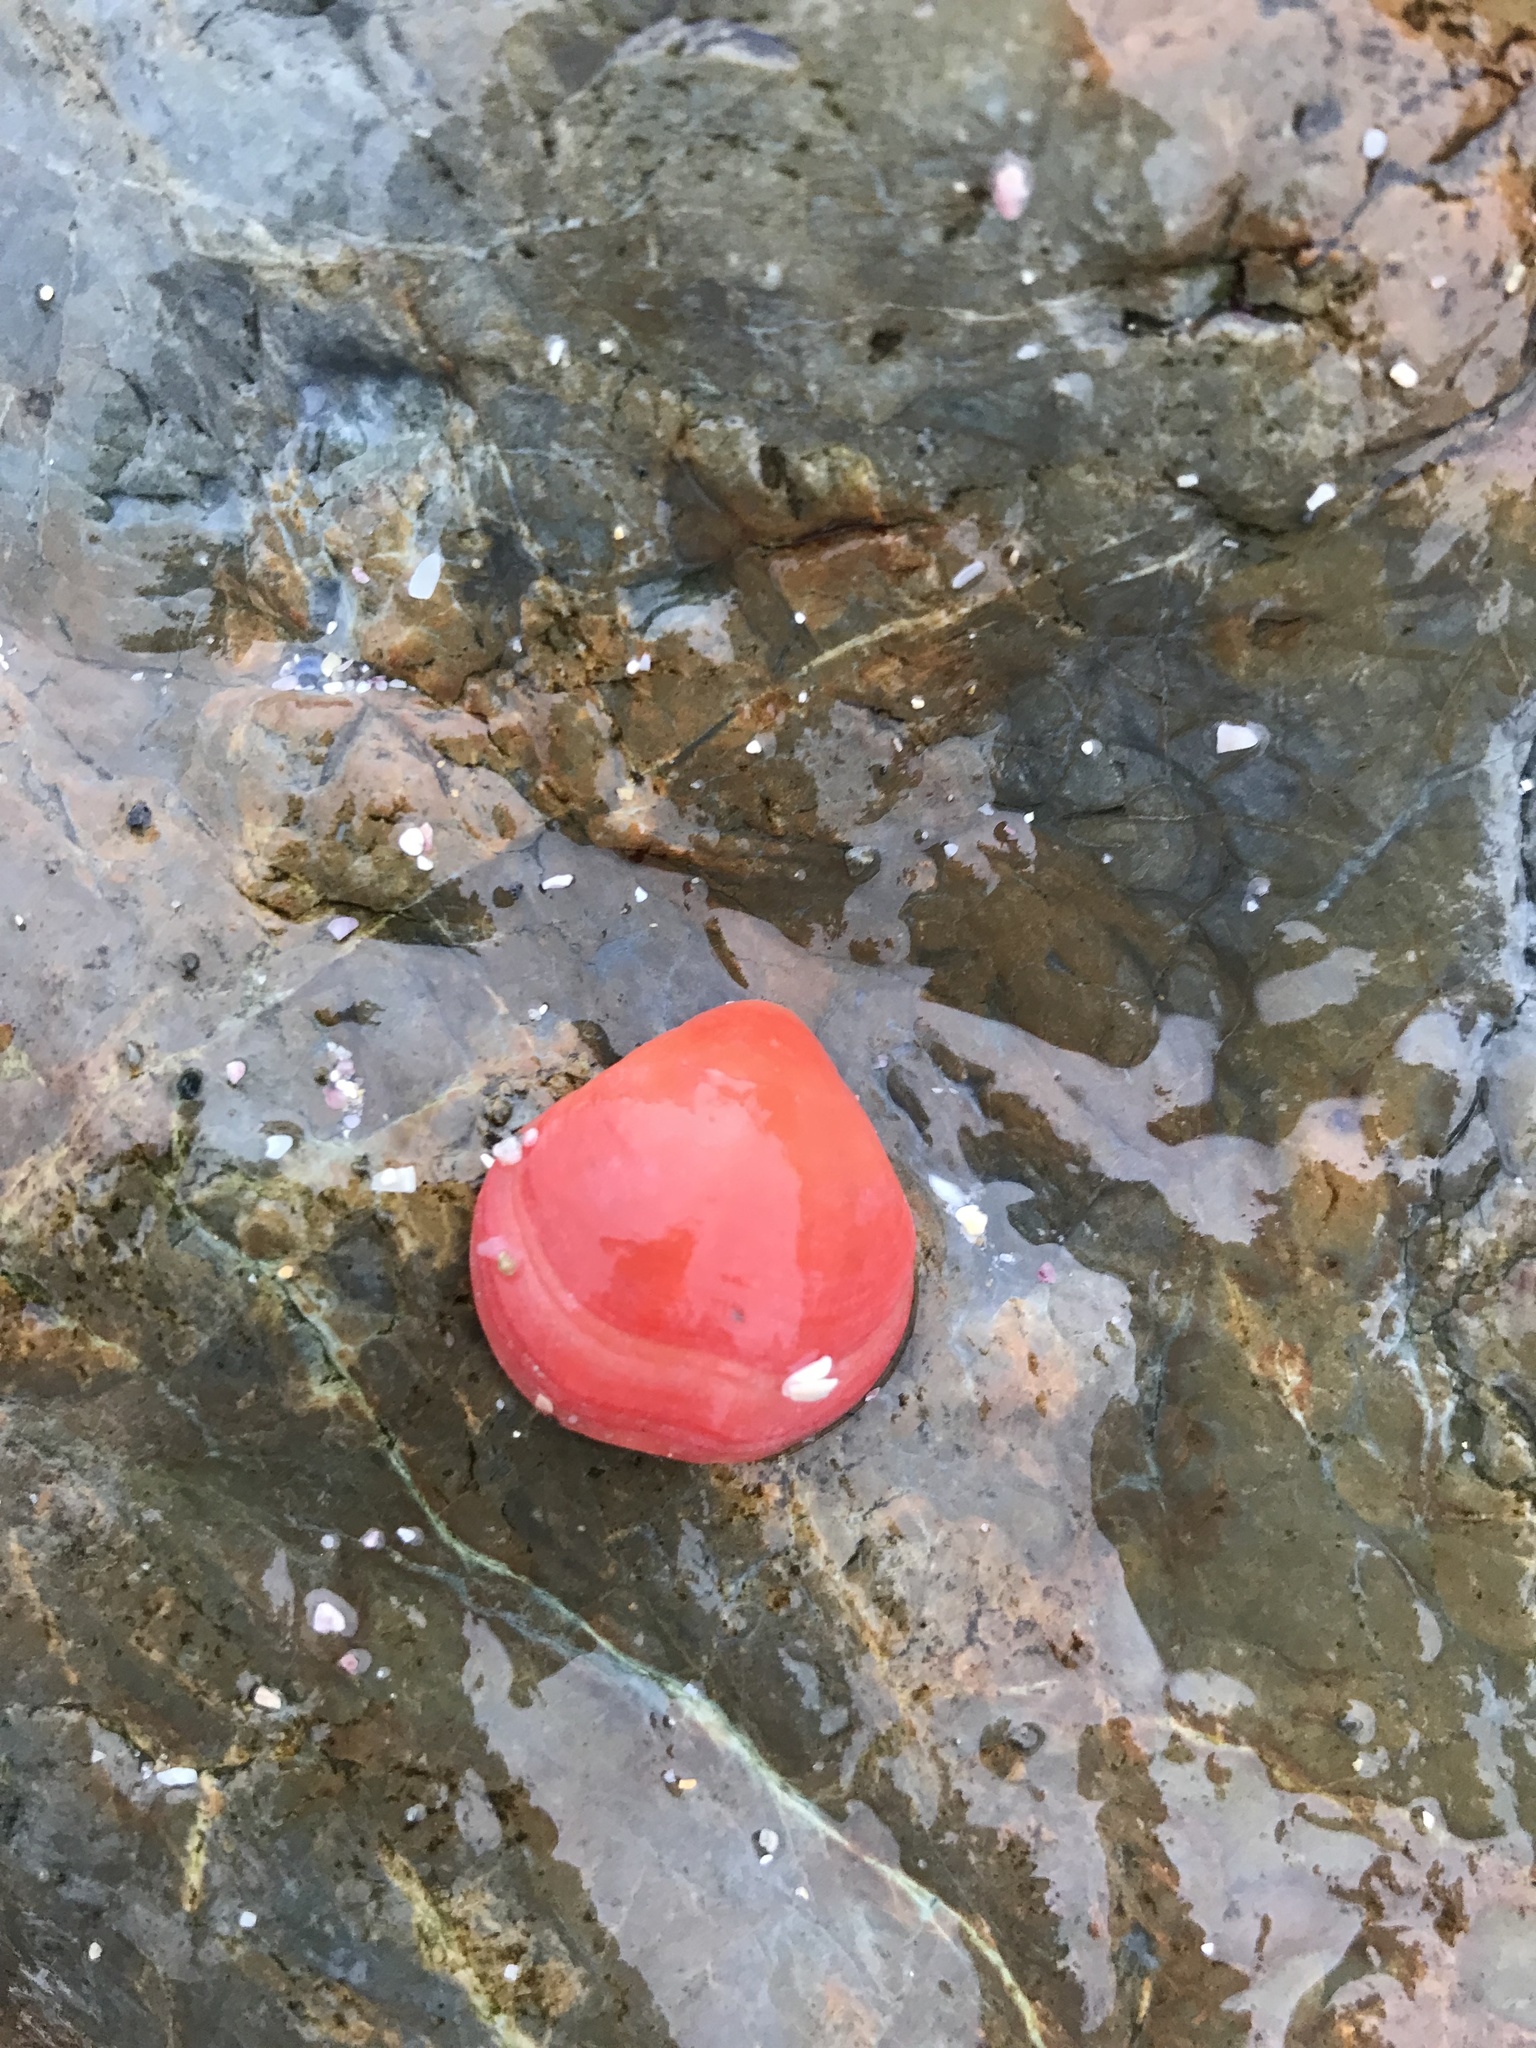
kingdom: Animalia
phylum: Brachiopoda
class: Rhynchonellata
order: Terebratulida
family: Terebratellidae
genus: Calloria
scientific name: Calloria inconspicua
